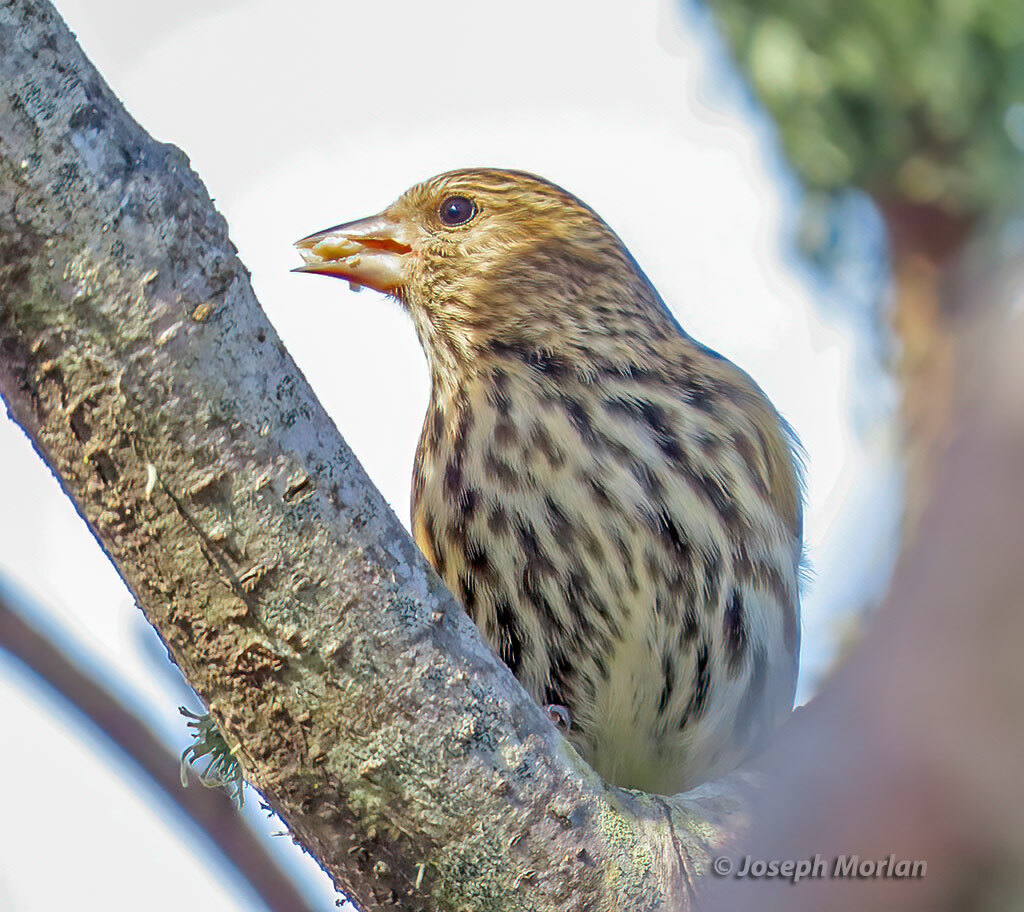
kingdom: Animalia
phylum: Chordata
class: Aves
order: Passeriformes
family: Fringillidae
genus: Spinus
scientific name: Spinus pinus
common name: Pine siskin
